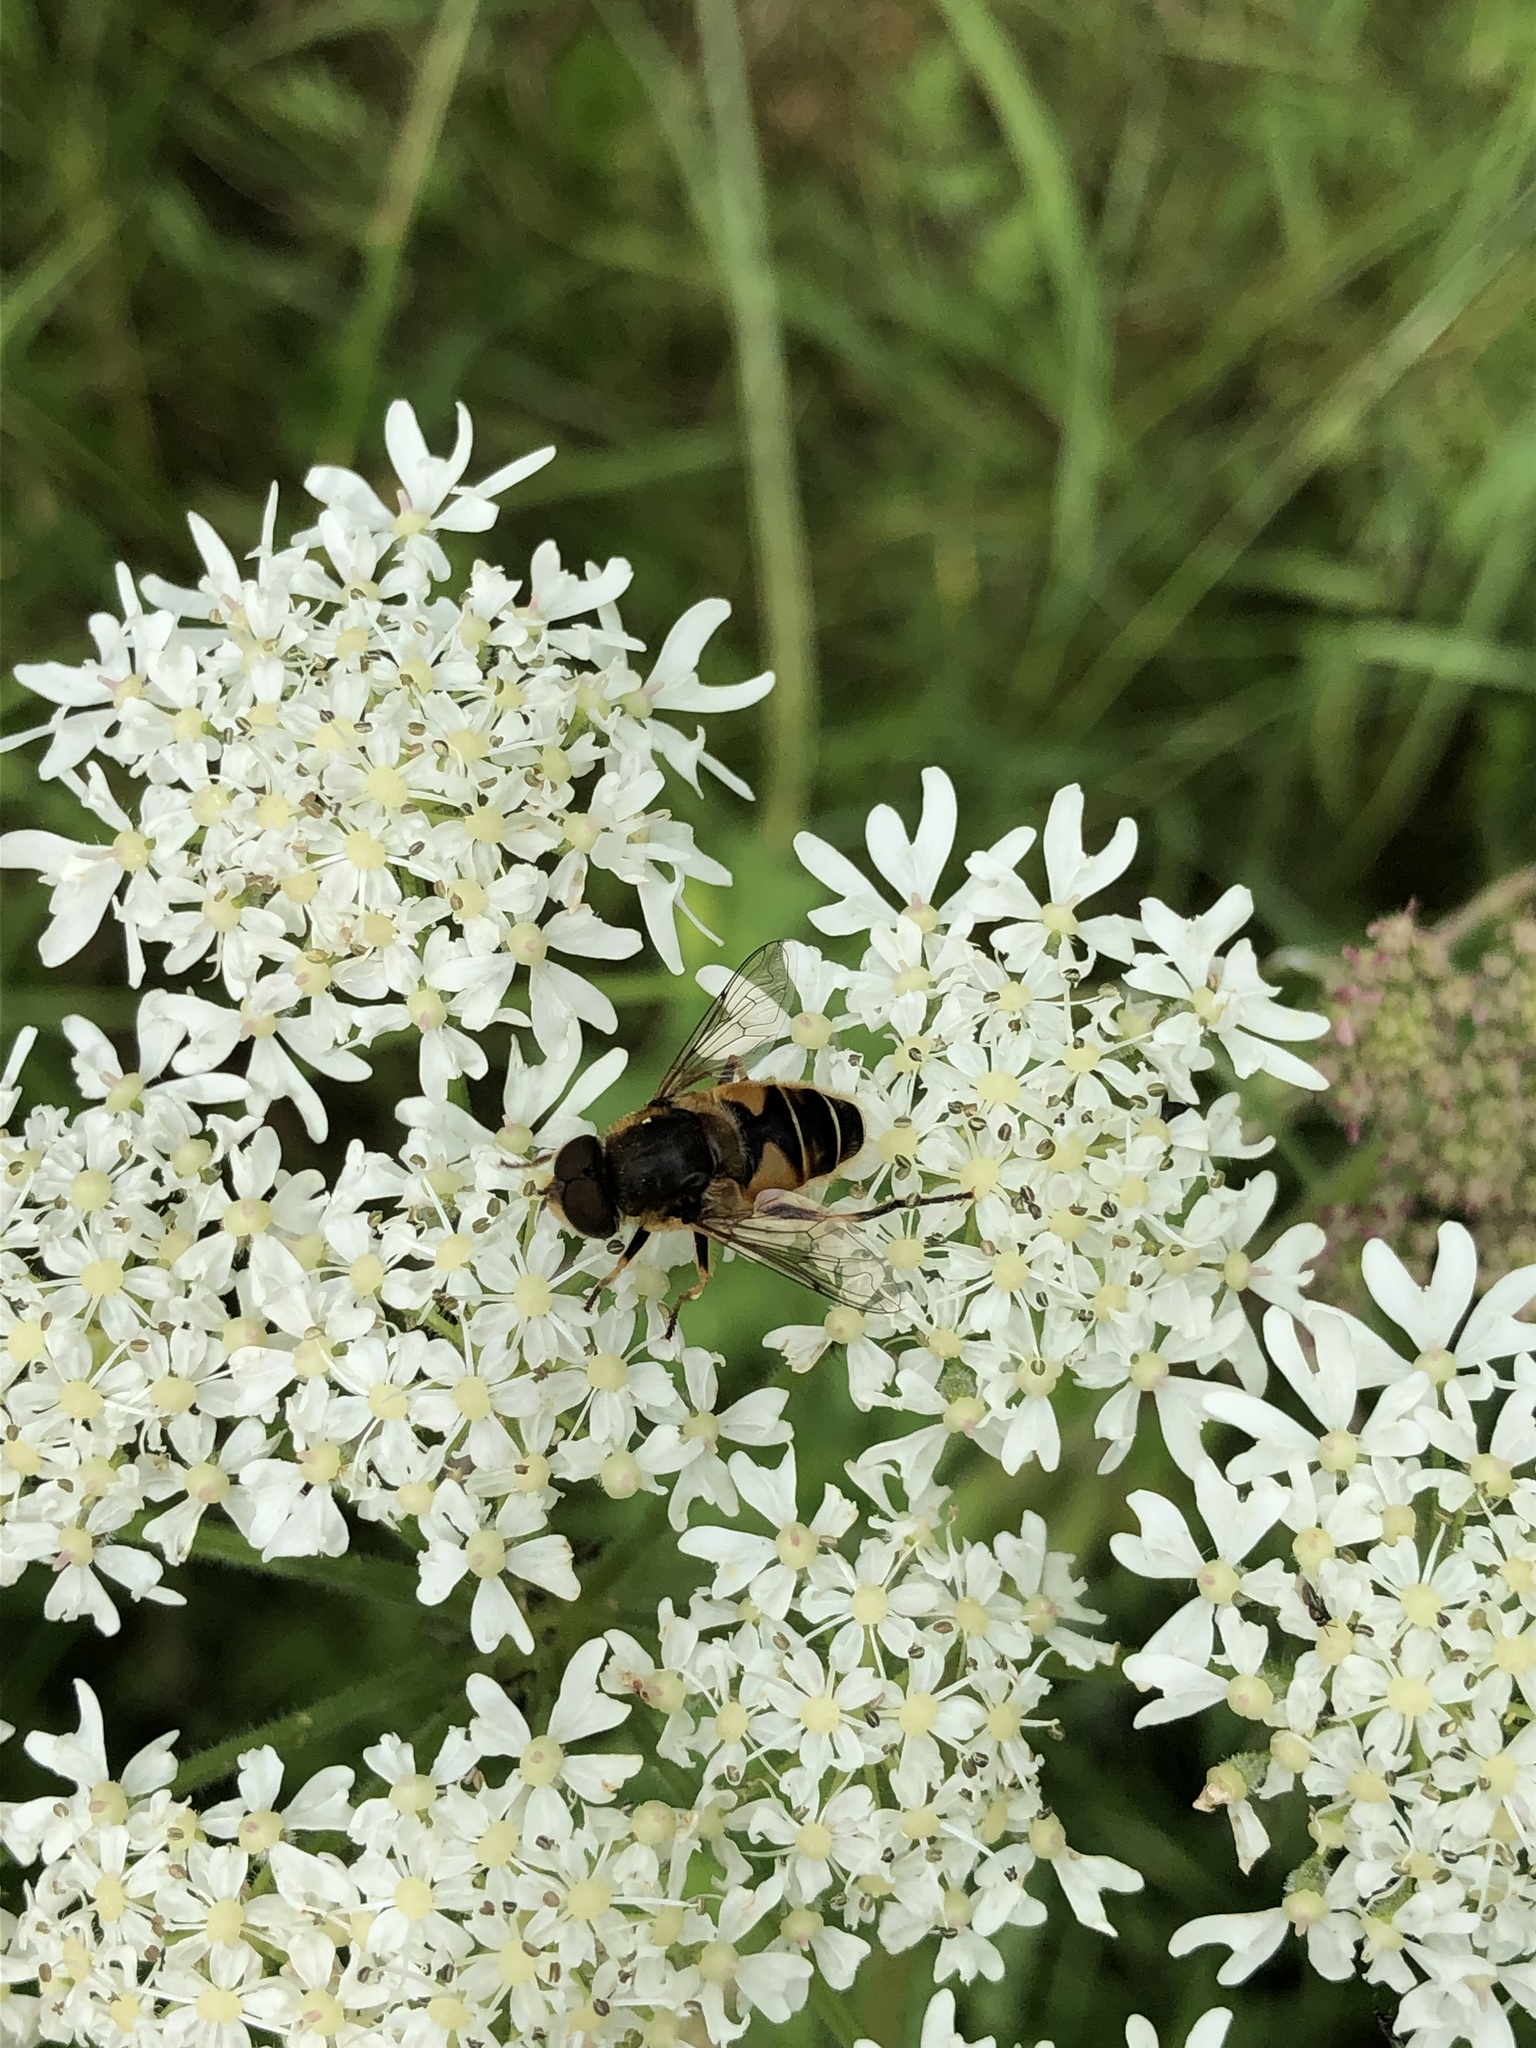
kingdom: Animalia
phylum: Arthropoda
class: Insecta
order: Diptera
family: Syrphidae
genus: Eristalis
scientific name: Eristalis nemorum
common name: Orange-spined drone fly
